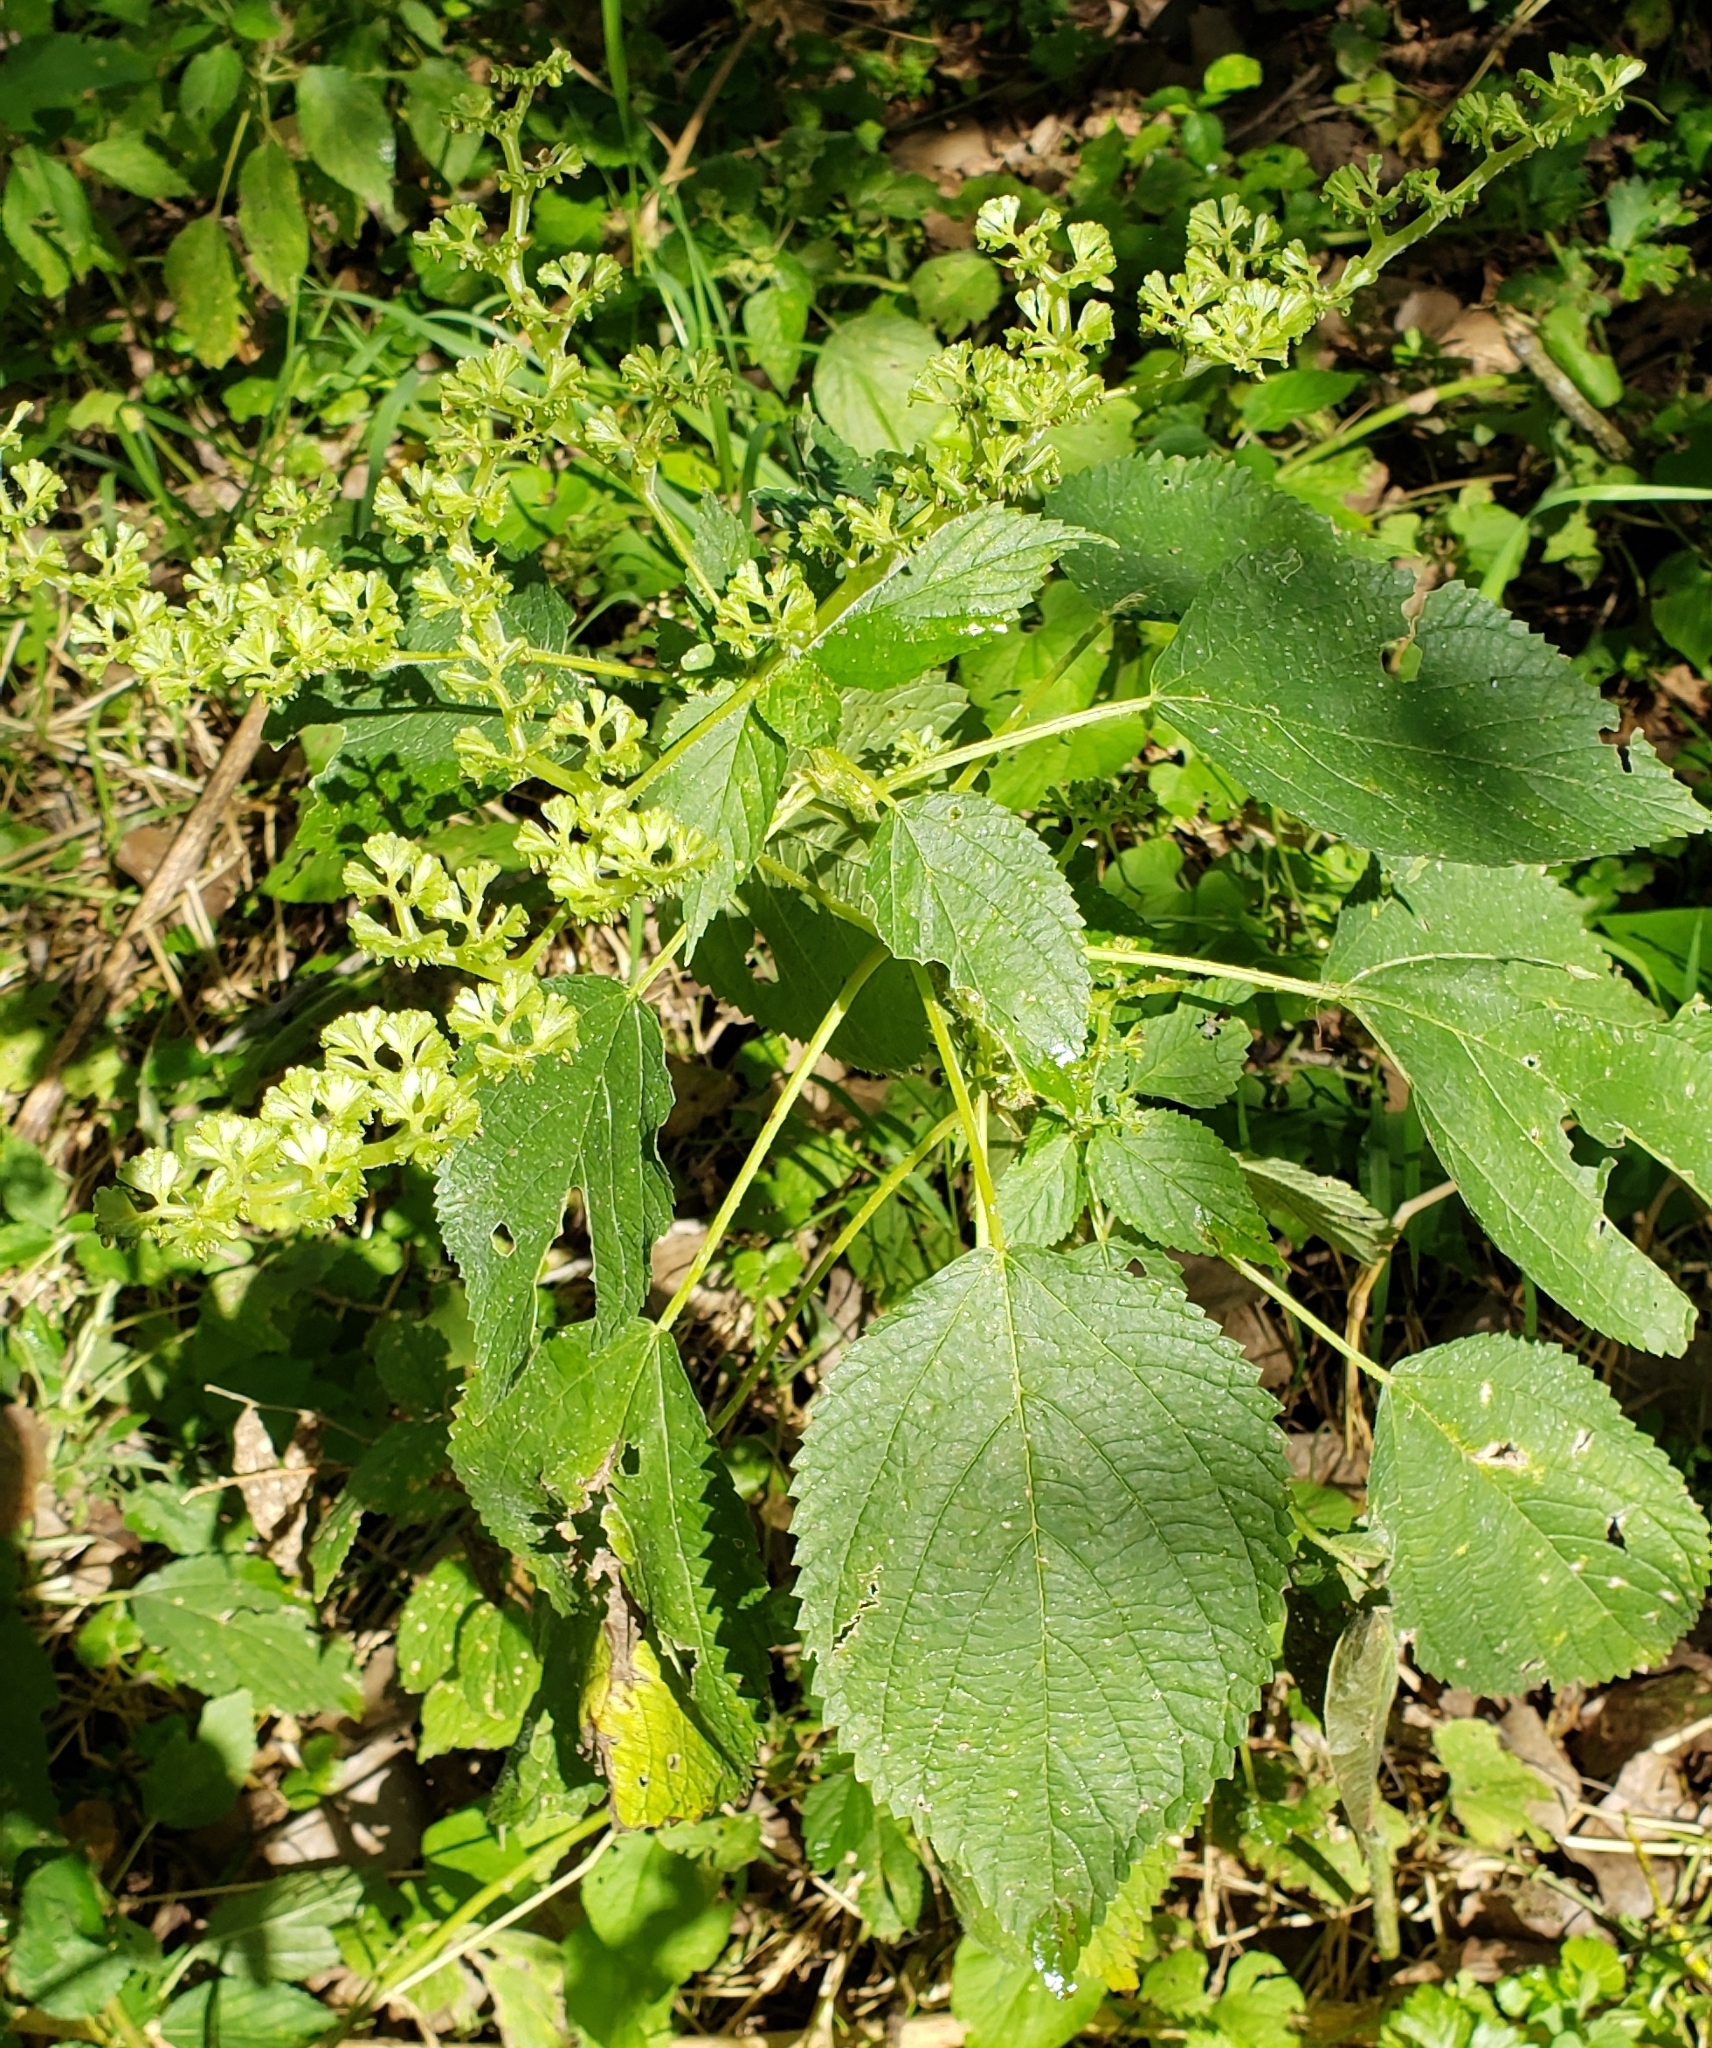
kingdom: Plantae
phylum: Tracheophyta
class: Magnoliopsida
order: Rosales
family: Urticaceae
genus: Laportea
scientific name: Laportea canadensis
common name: Canada nettle
